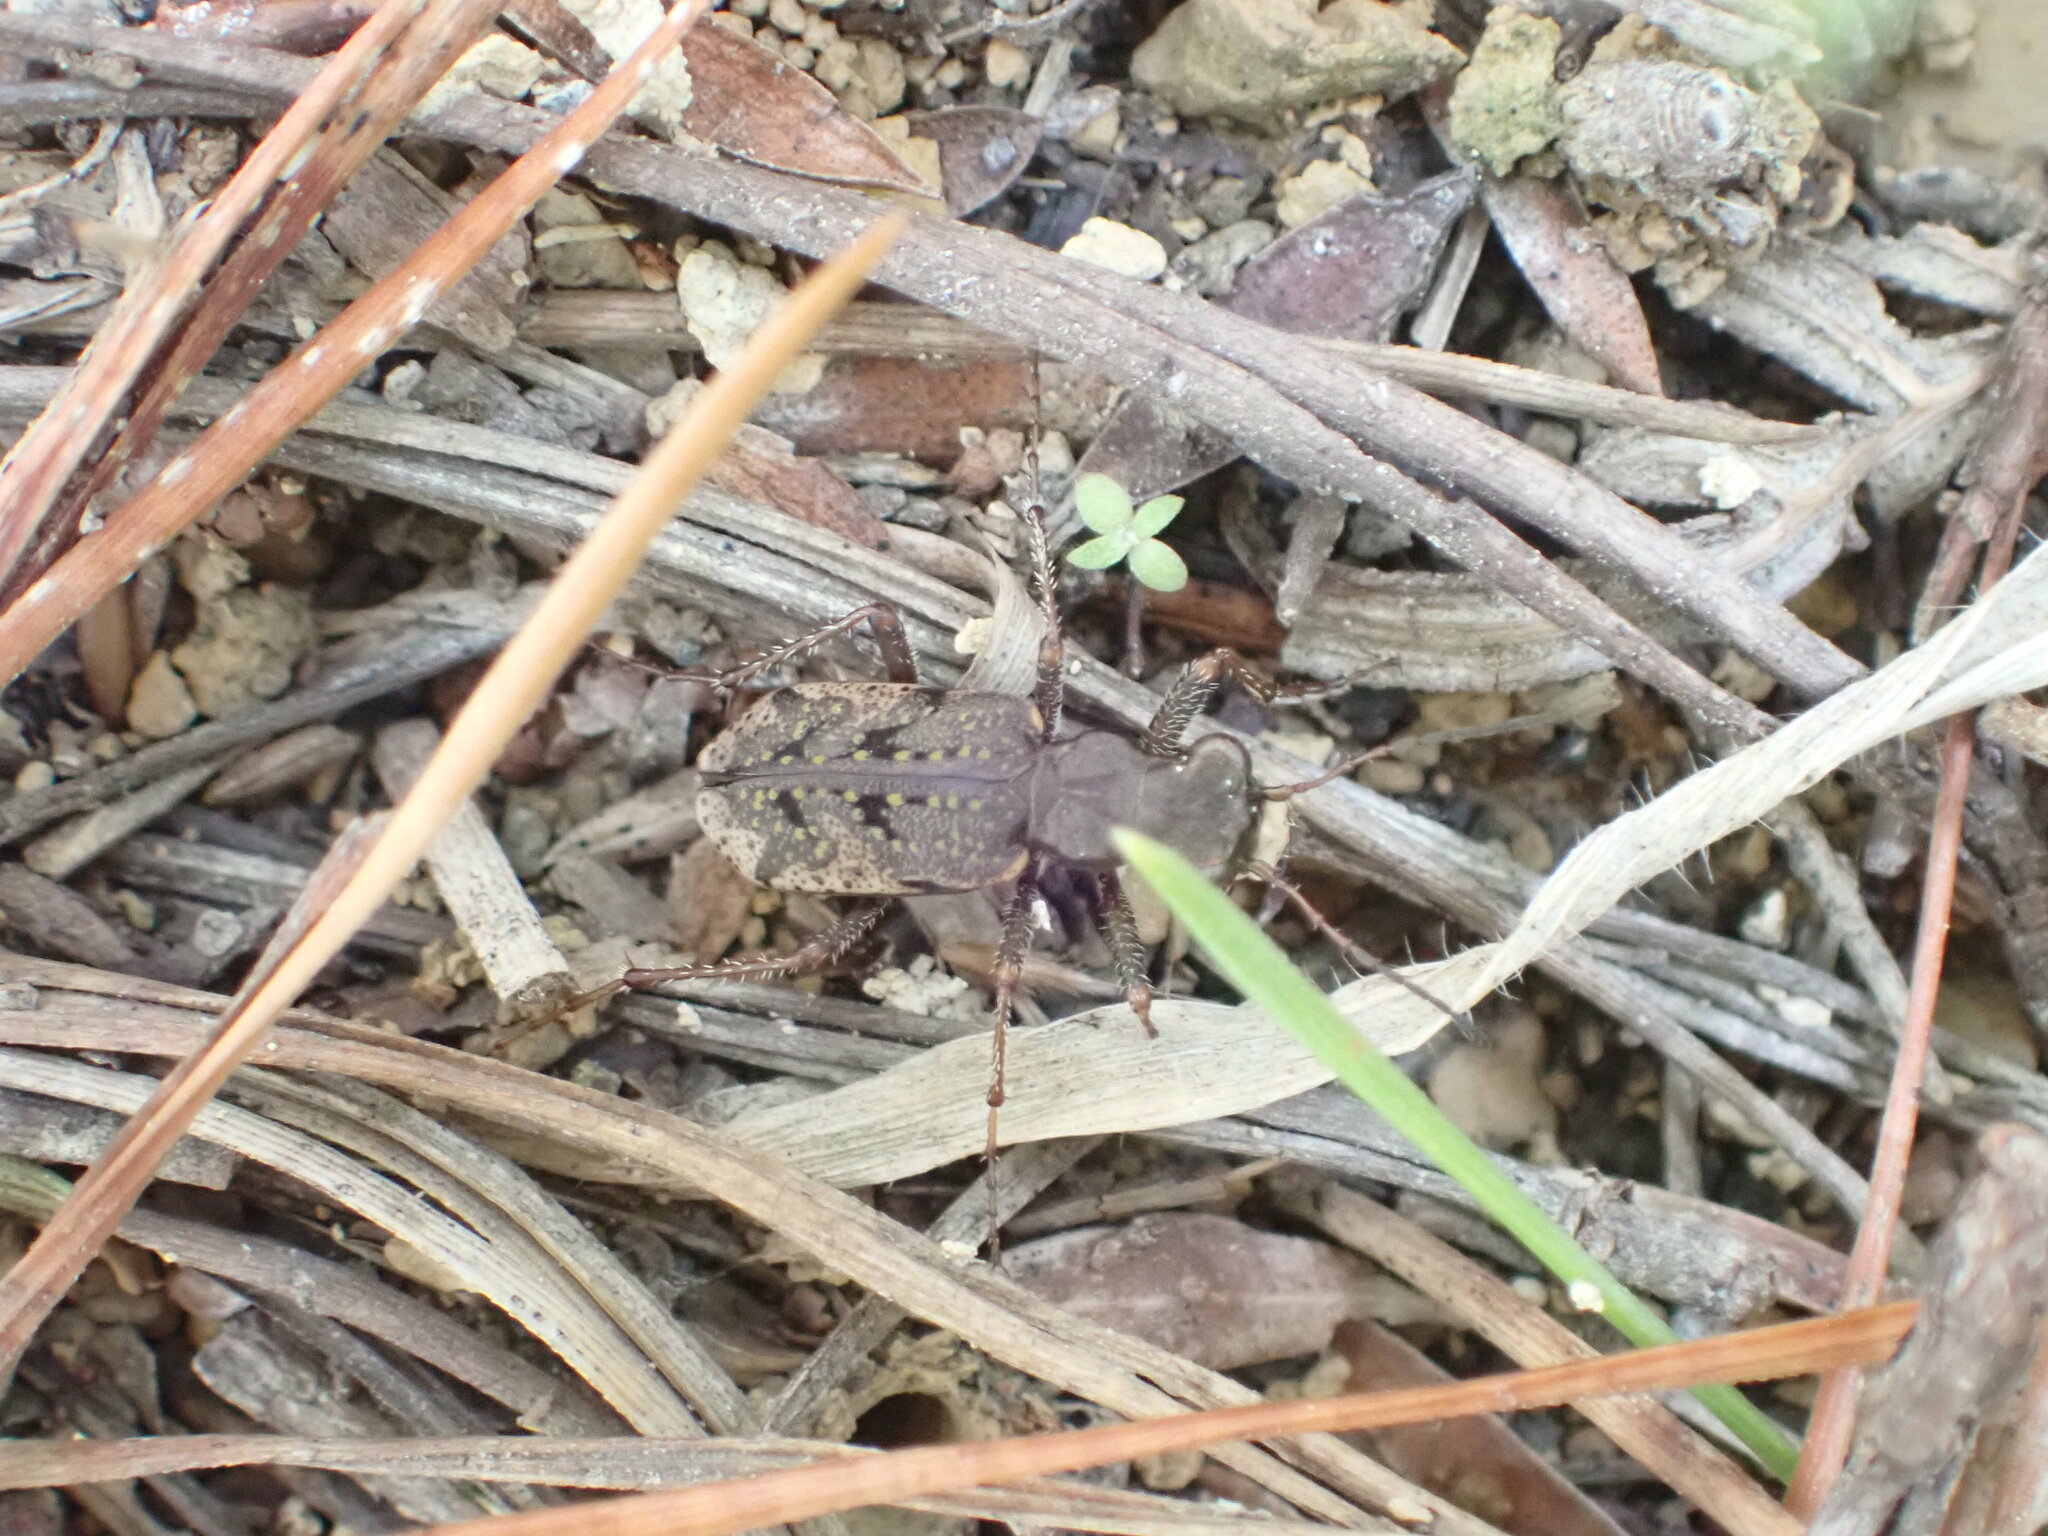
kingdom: Animalia
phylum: Arthropoda
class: Insecta
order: Coleoptera
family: Carabidae
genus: Neocicindela
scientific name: Neocicindela parryi
